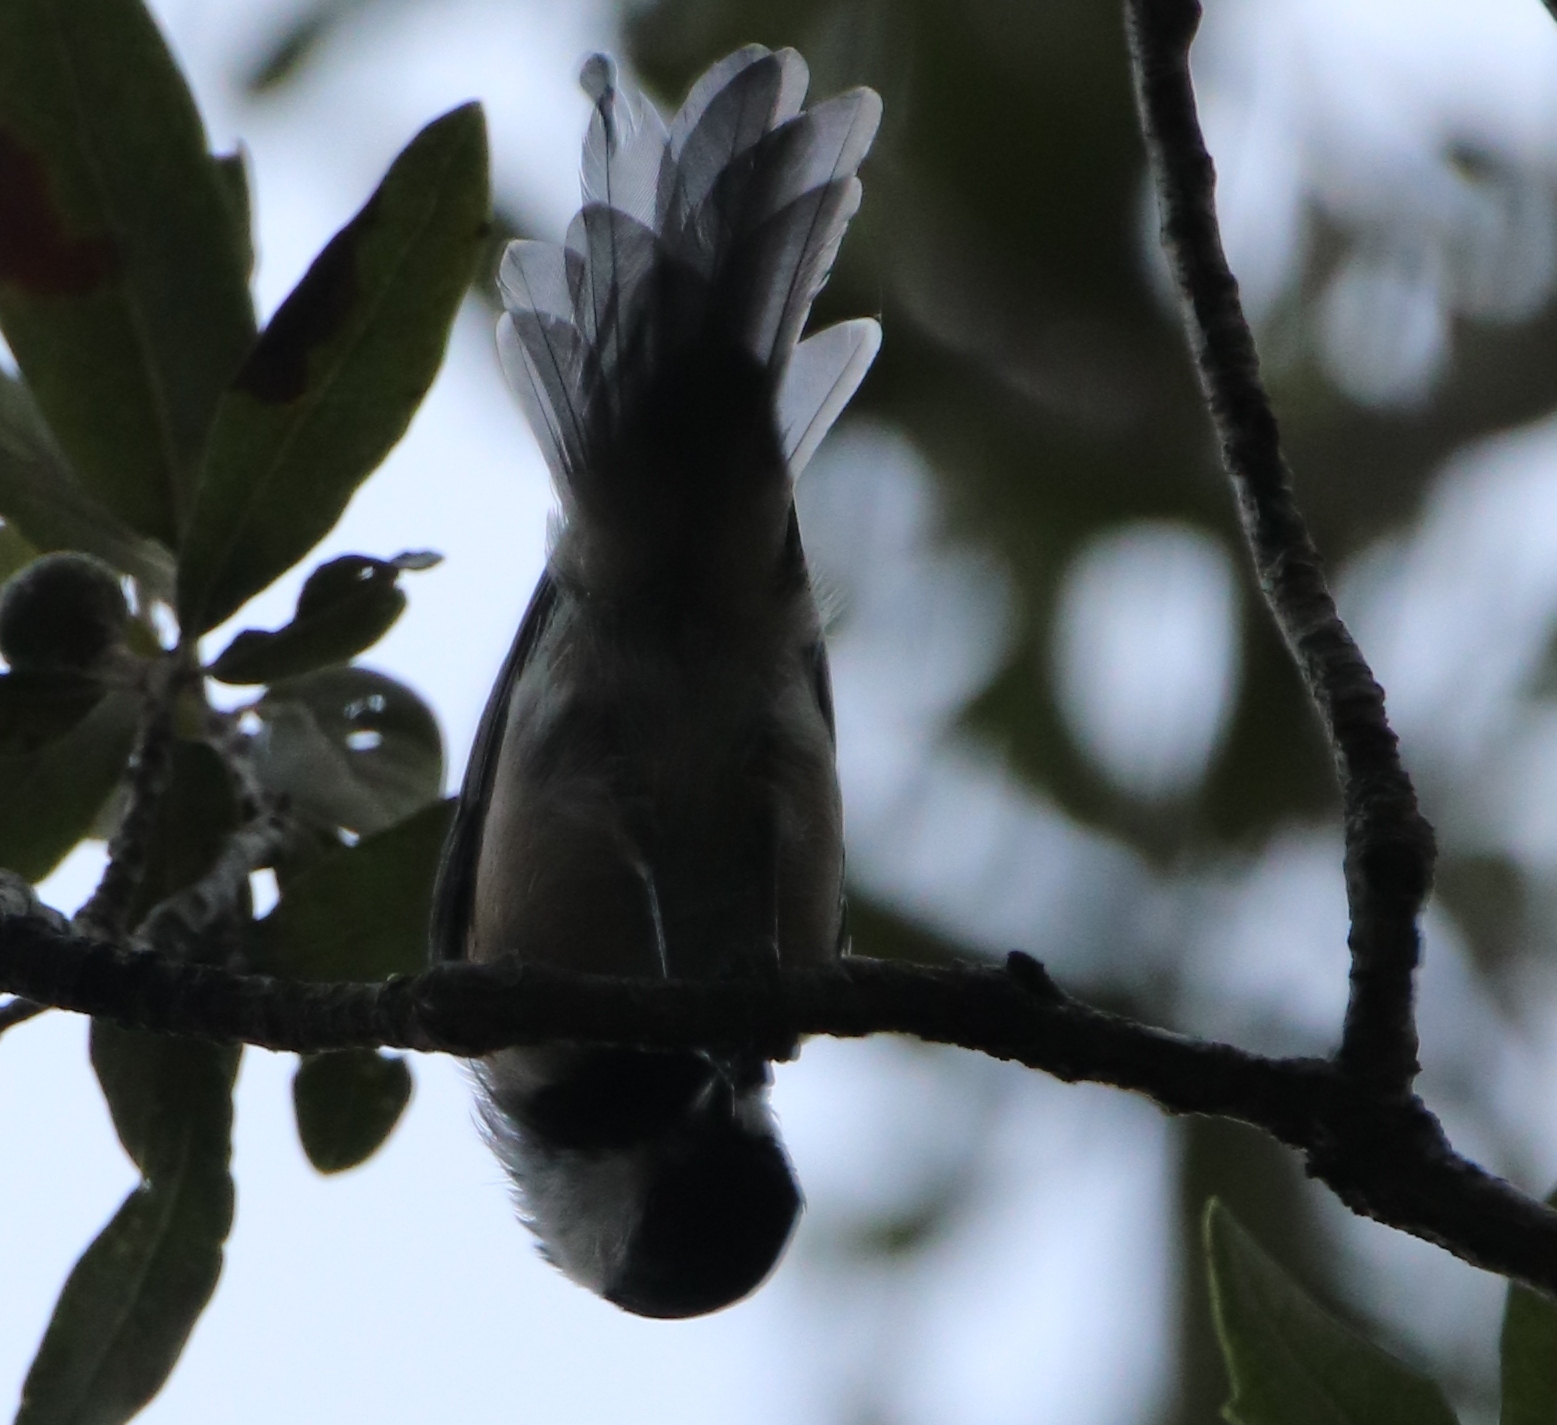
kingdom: Animalia
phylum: Chordata
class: Aves
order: Passeriformes
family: Paridae
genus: Poecile
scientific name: Poecile carolinensis
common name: Carolina chickadee
